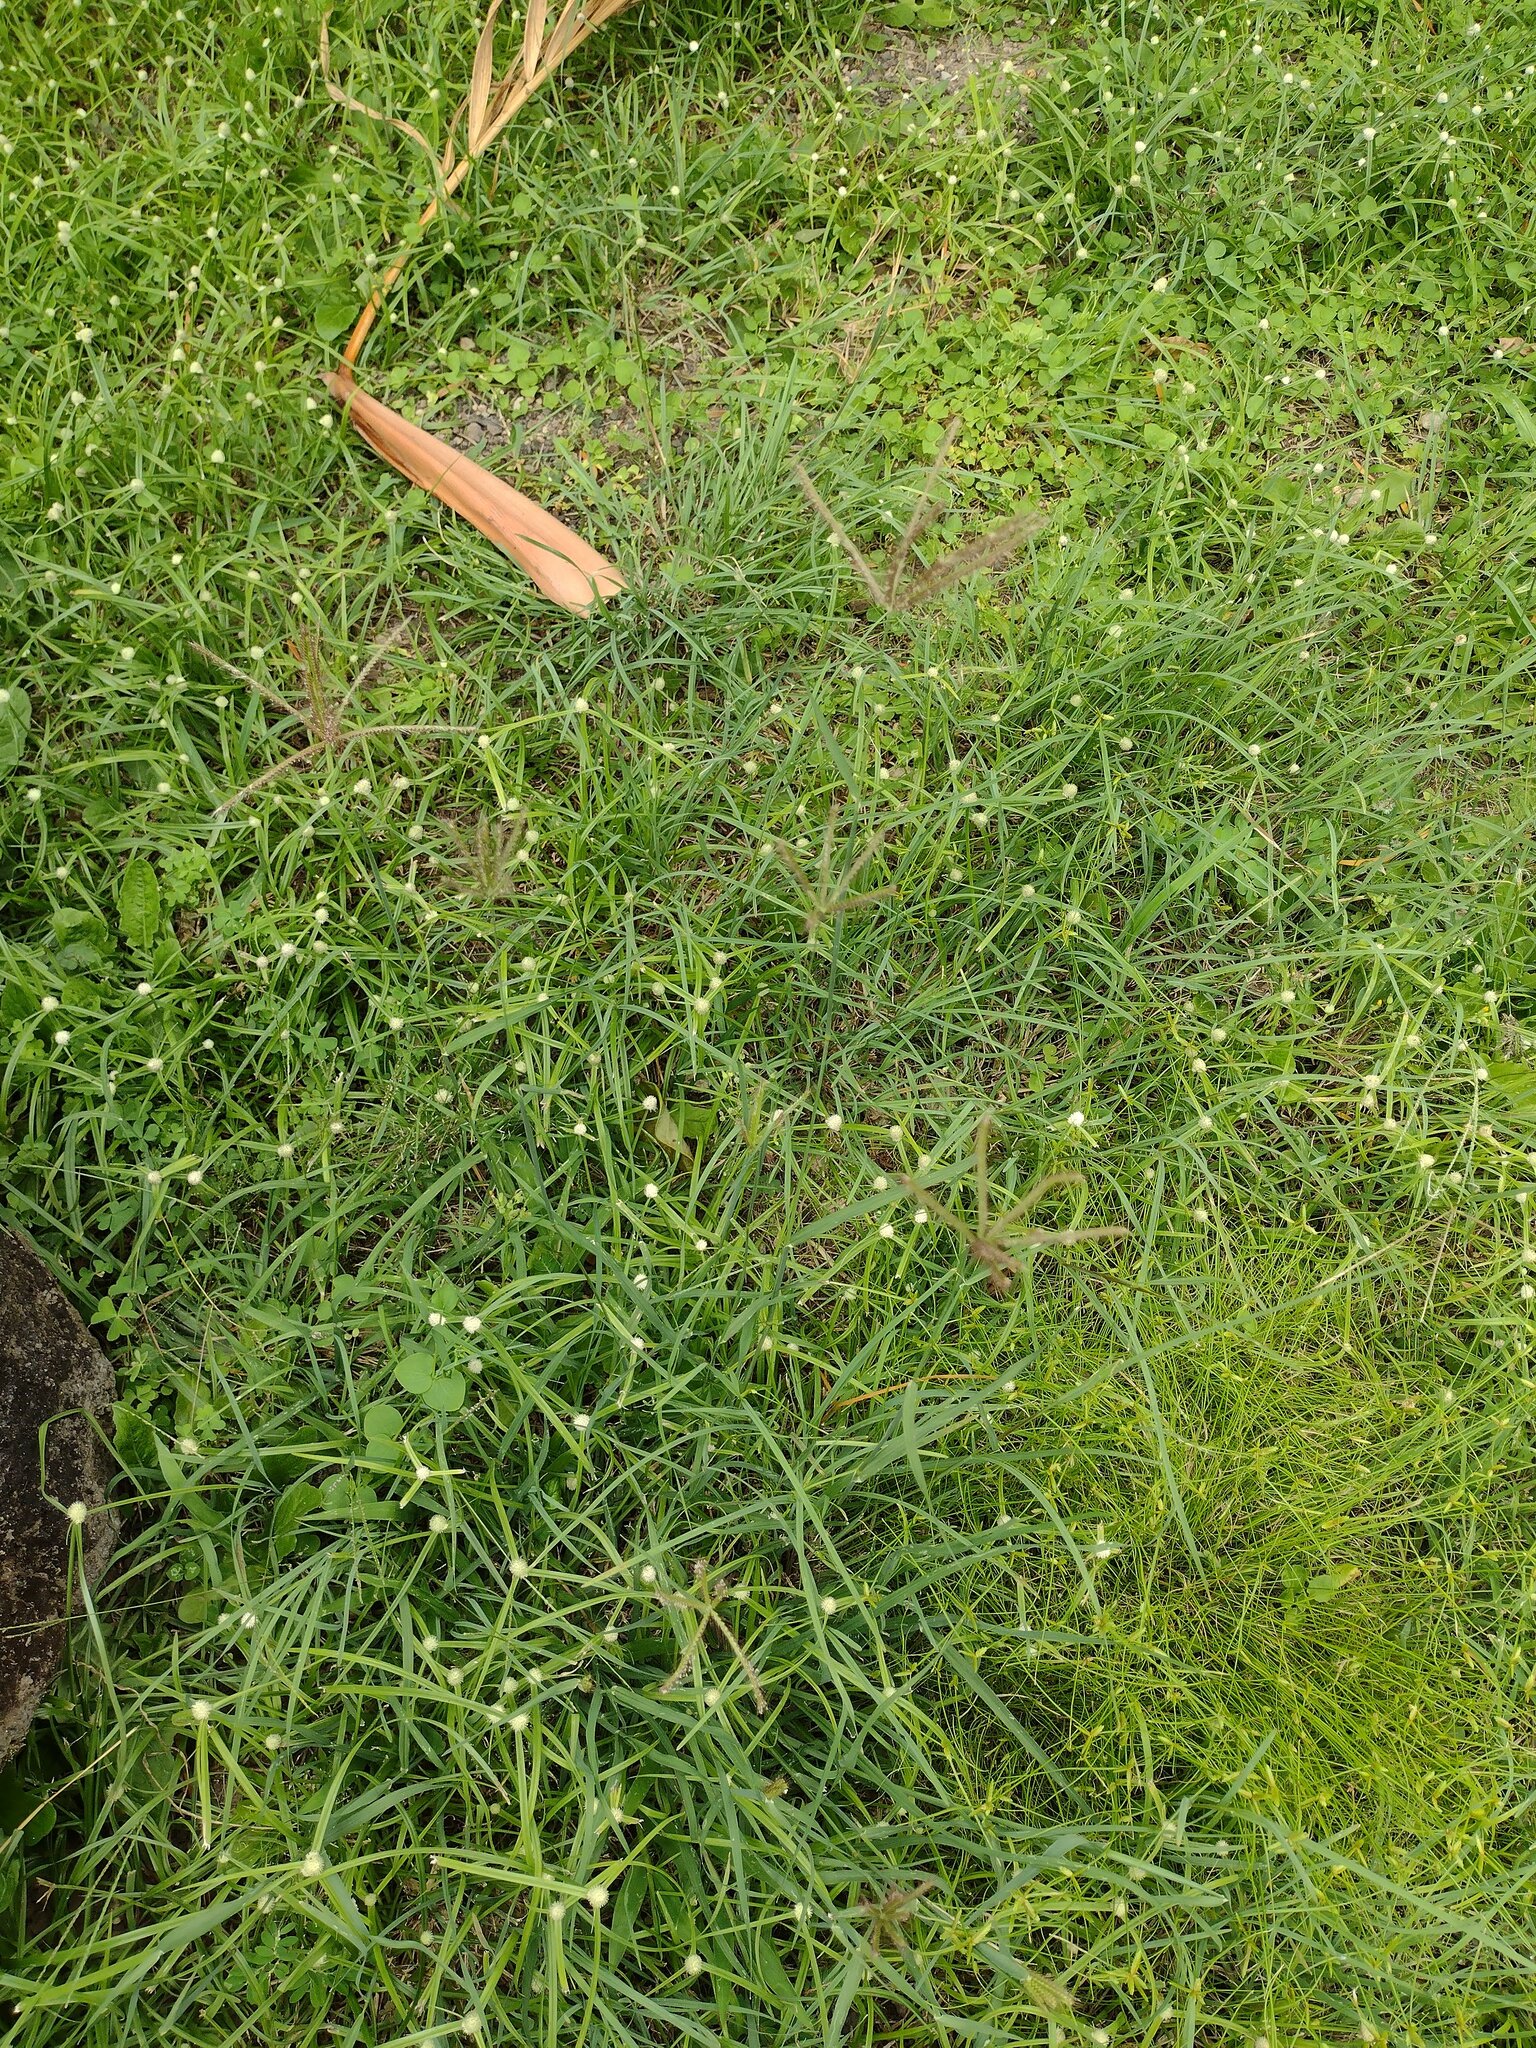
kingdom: Plantae
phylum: Tracheophyta
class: Liliopsida
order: Poales
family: Cyperaceae
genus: Cyperus
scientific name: Cyperus mindorensis
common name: Flatsedge
